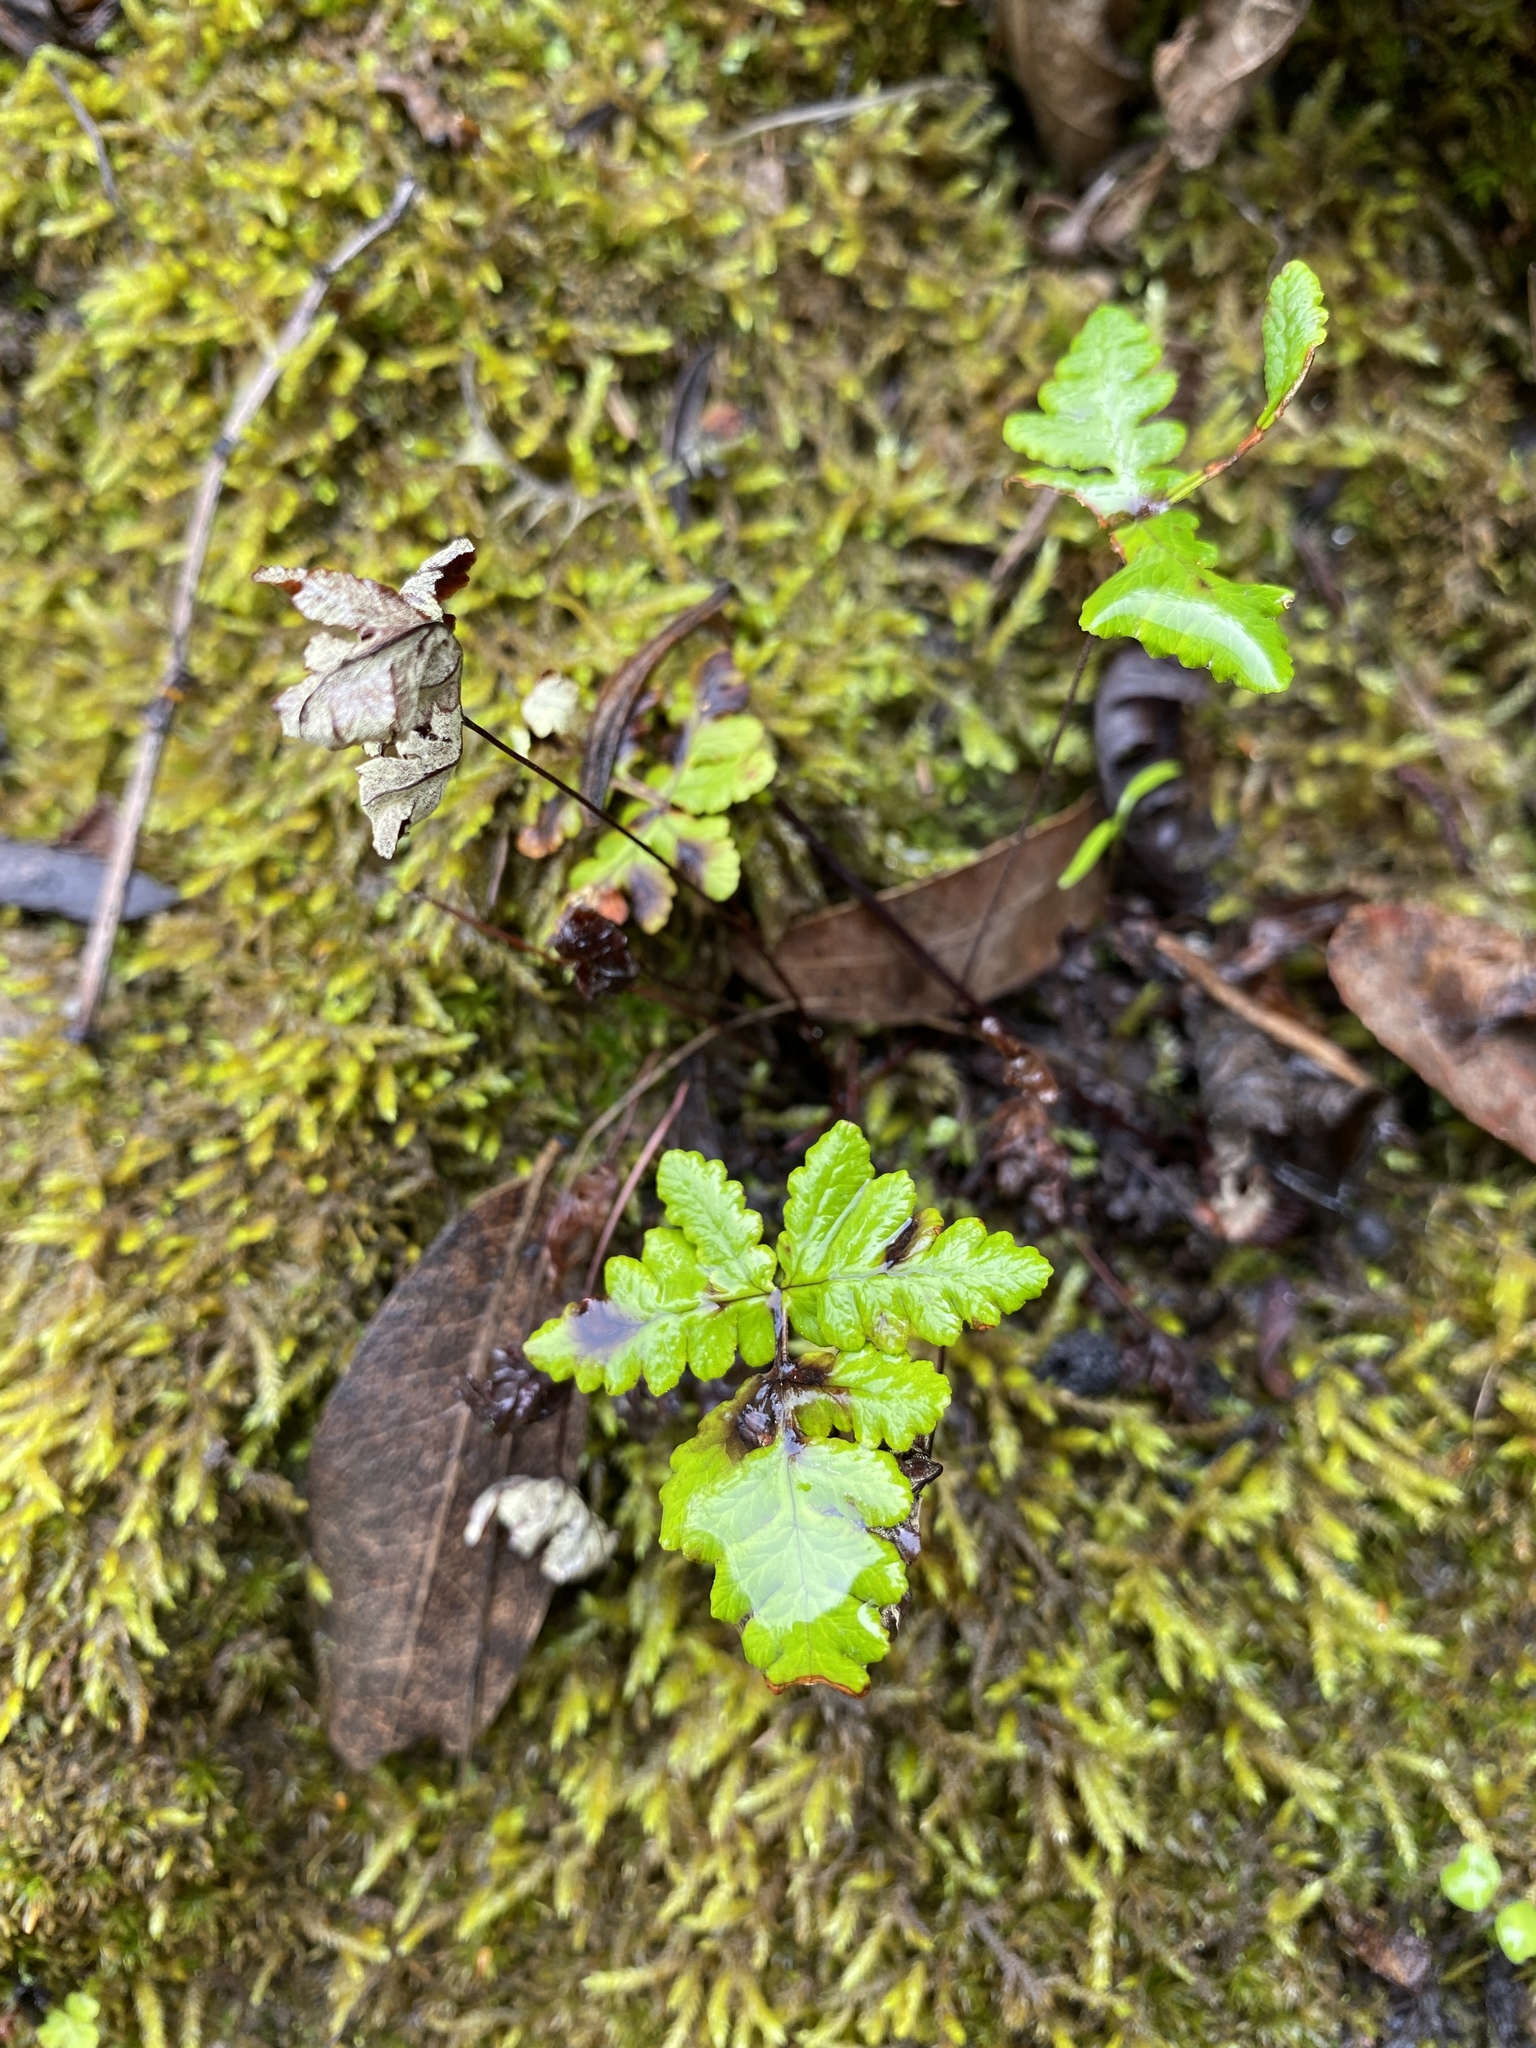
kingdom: Plantae
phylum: Tracheophyta
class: Polypodiopsida
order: Polypodiales
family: Pteridaceae
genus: Pentagramma
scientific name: Pentagramma triangularis
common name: Gold fern
